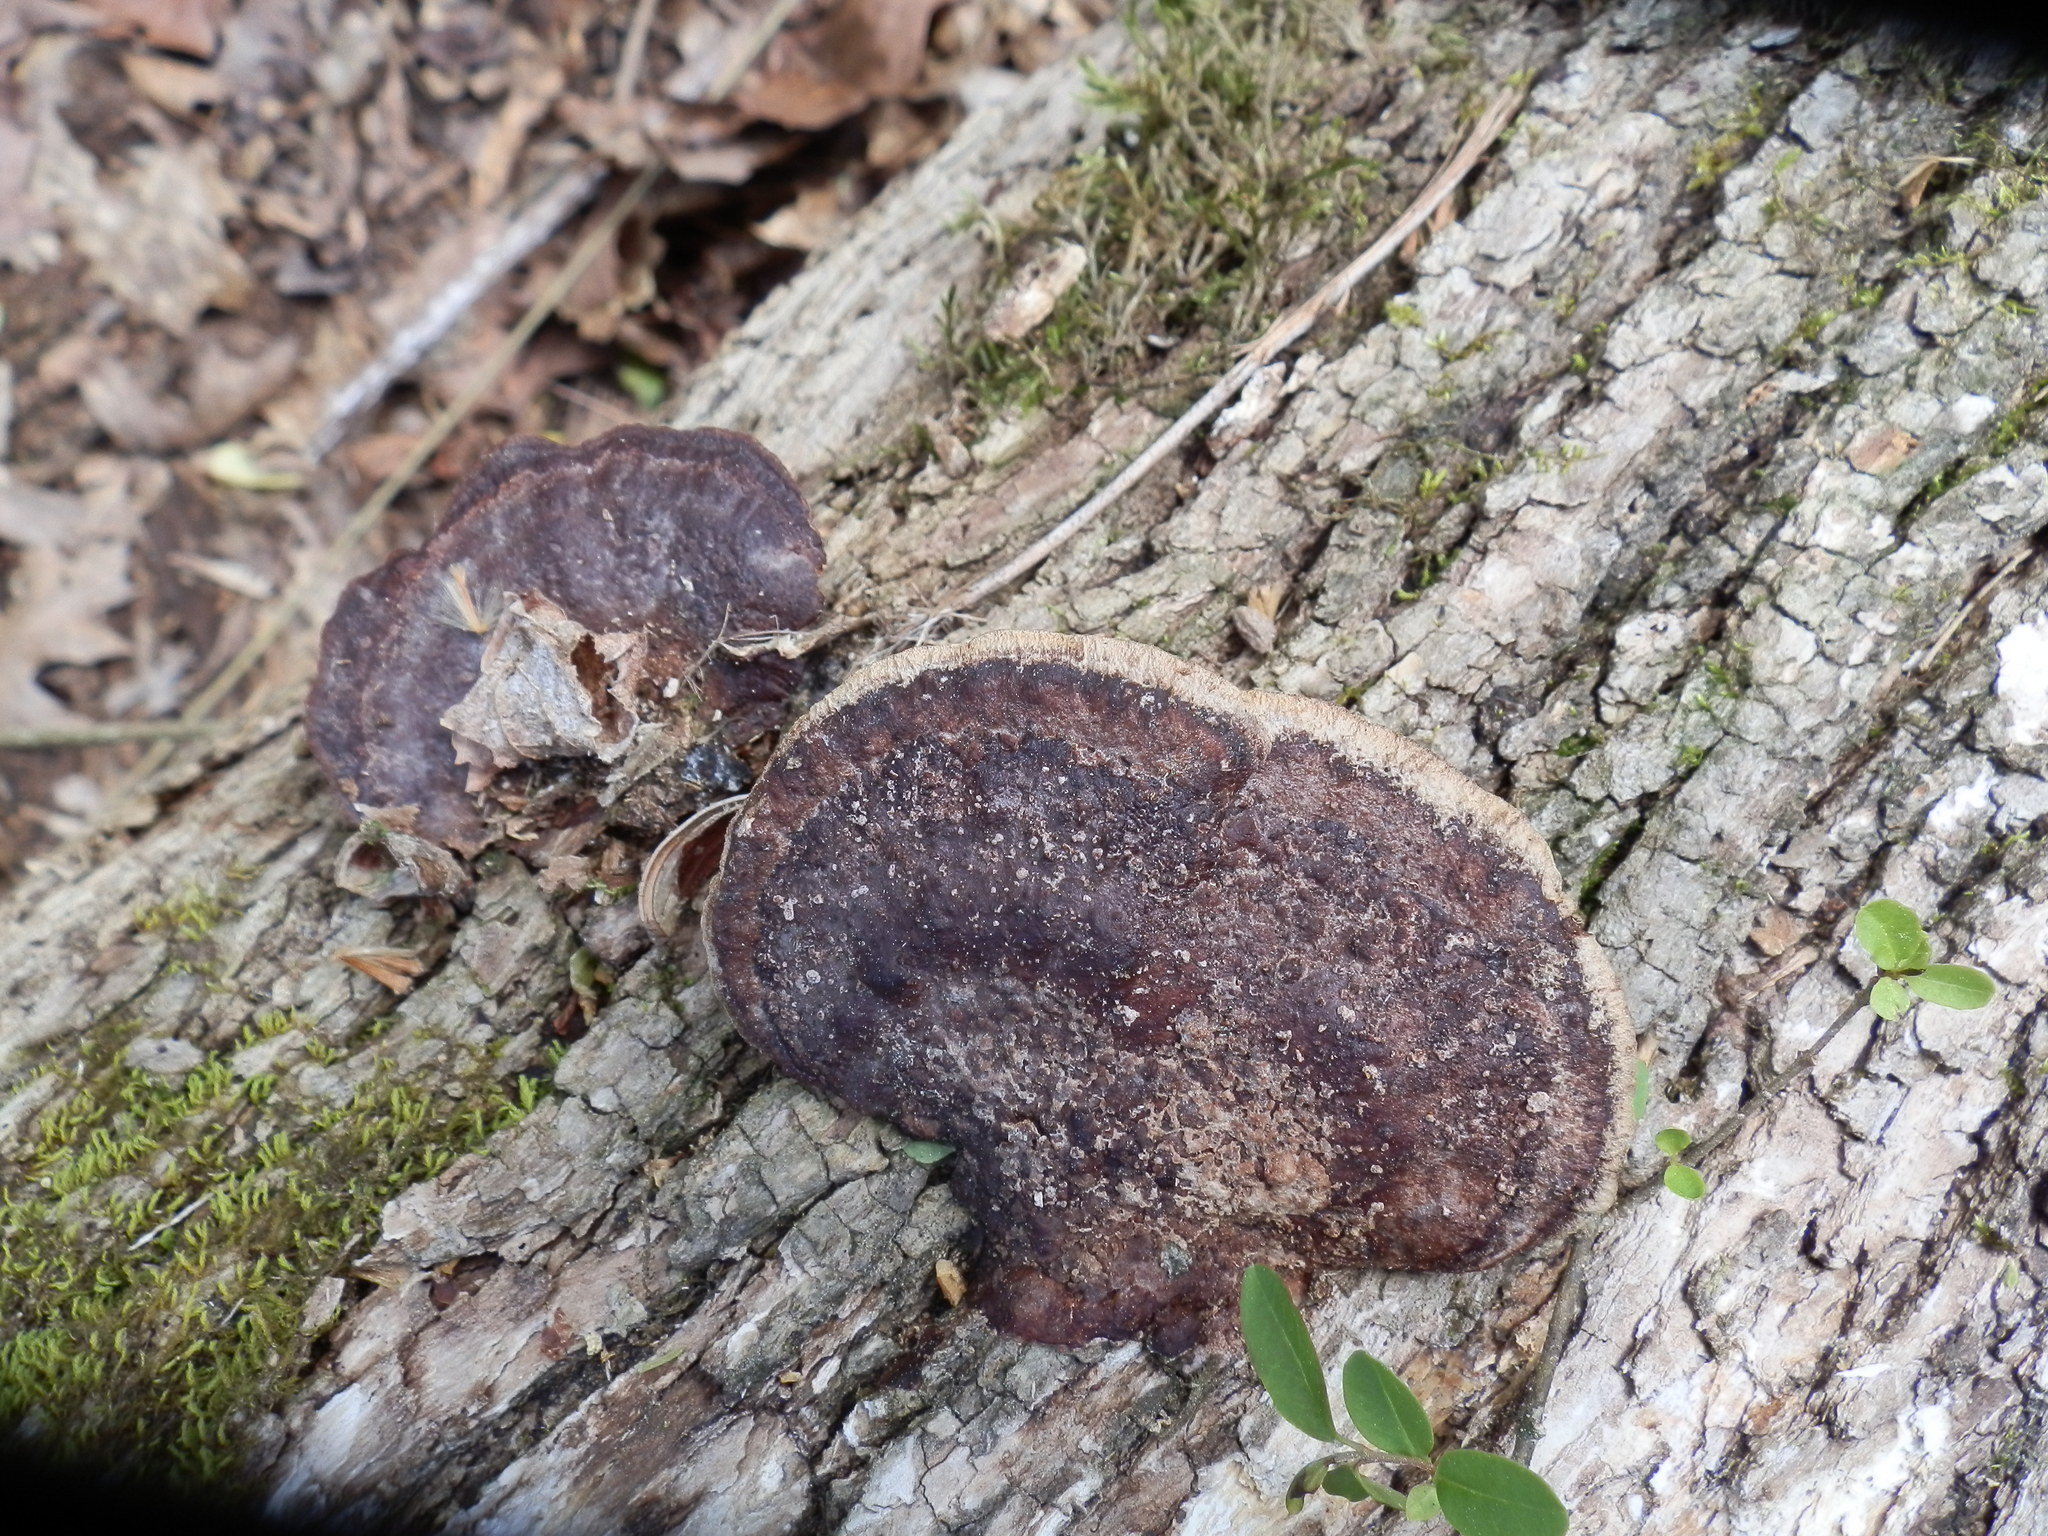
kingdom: Fungi
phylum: Basidiomycota
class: Agaricomycetes
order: Hymenochaetales
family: Hymenochaetaceae
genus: Phellinus
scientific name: Phellinus gilvus
